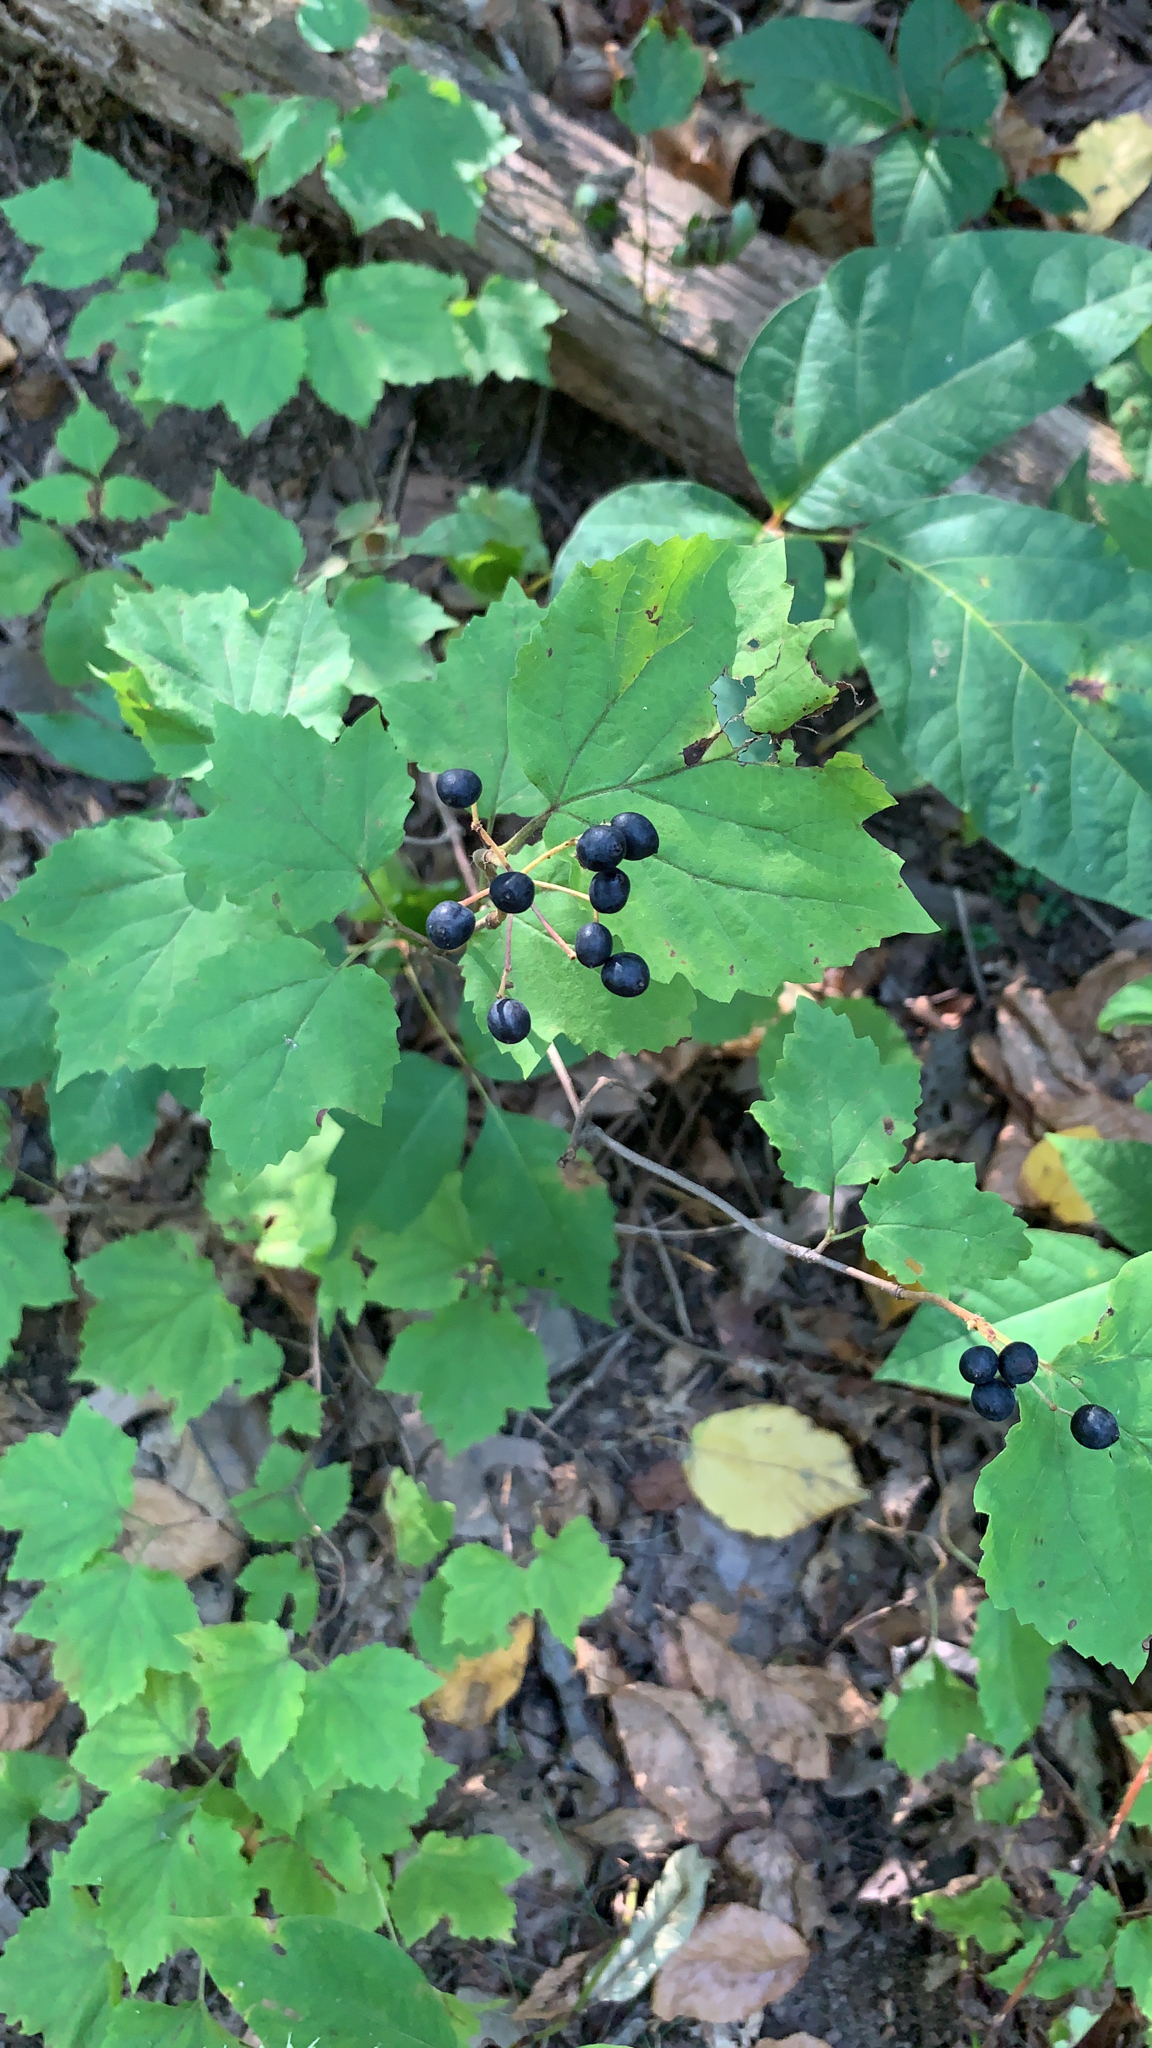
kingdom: Plantae
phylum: Tracheophyta
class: Magnoliopsida
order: Dipsacales
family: Viburnaceae
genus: Viburnum
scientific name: Viburnum acerifolium
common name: Dockmackie
